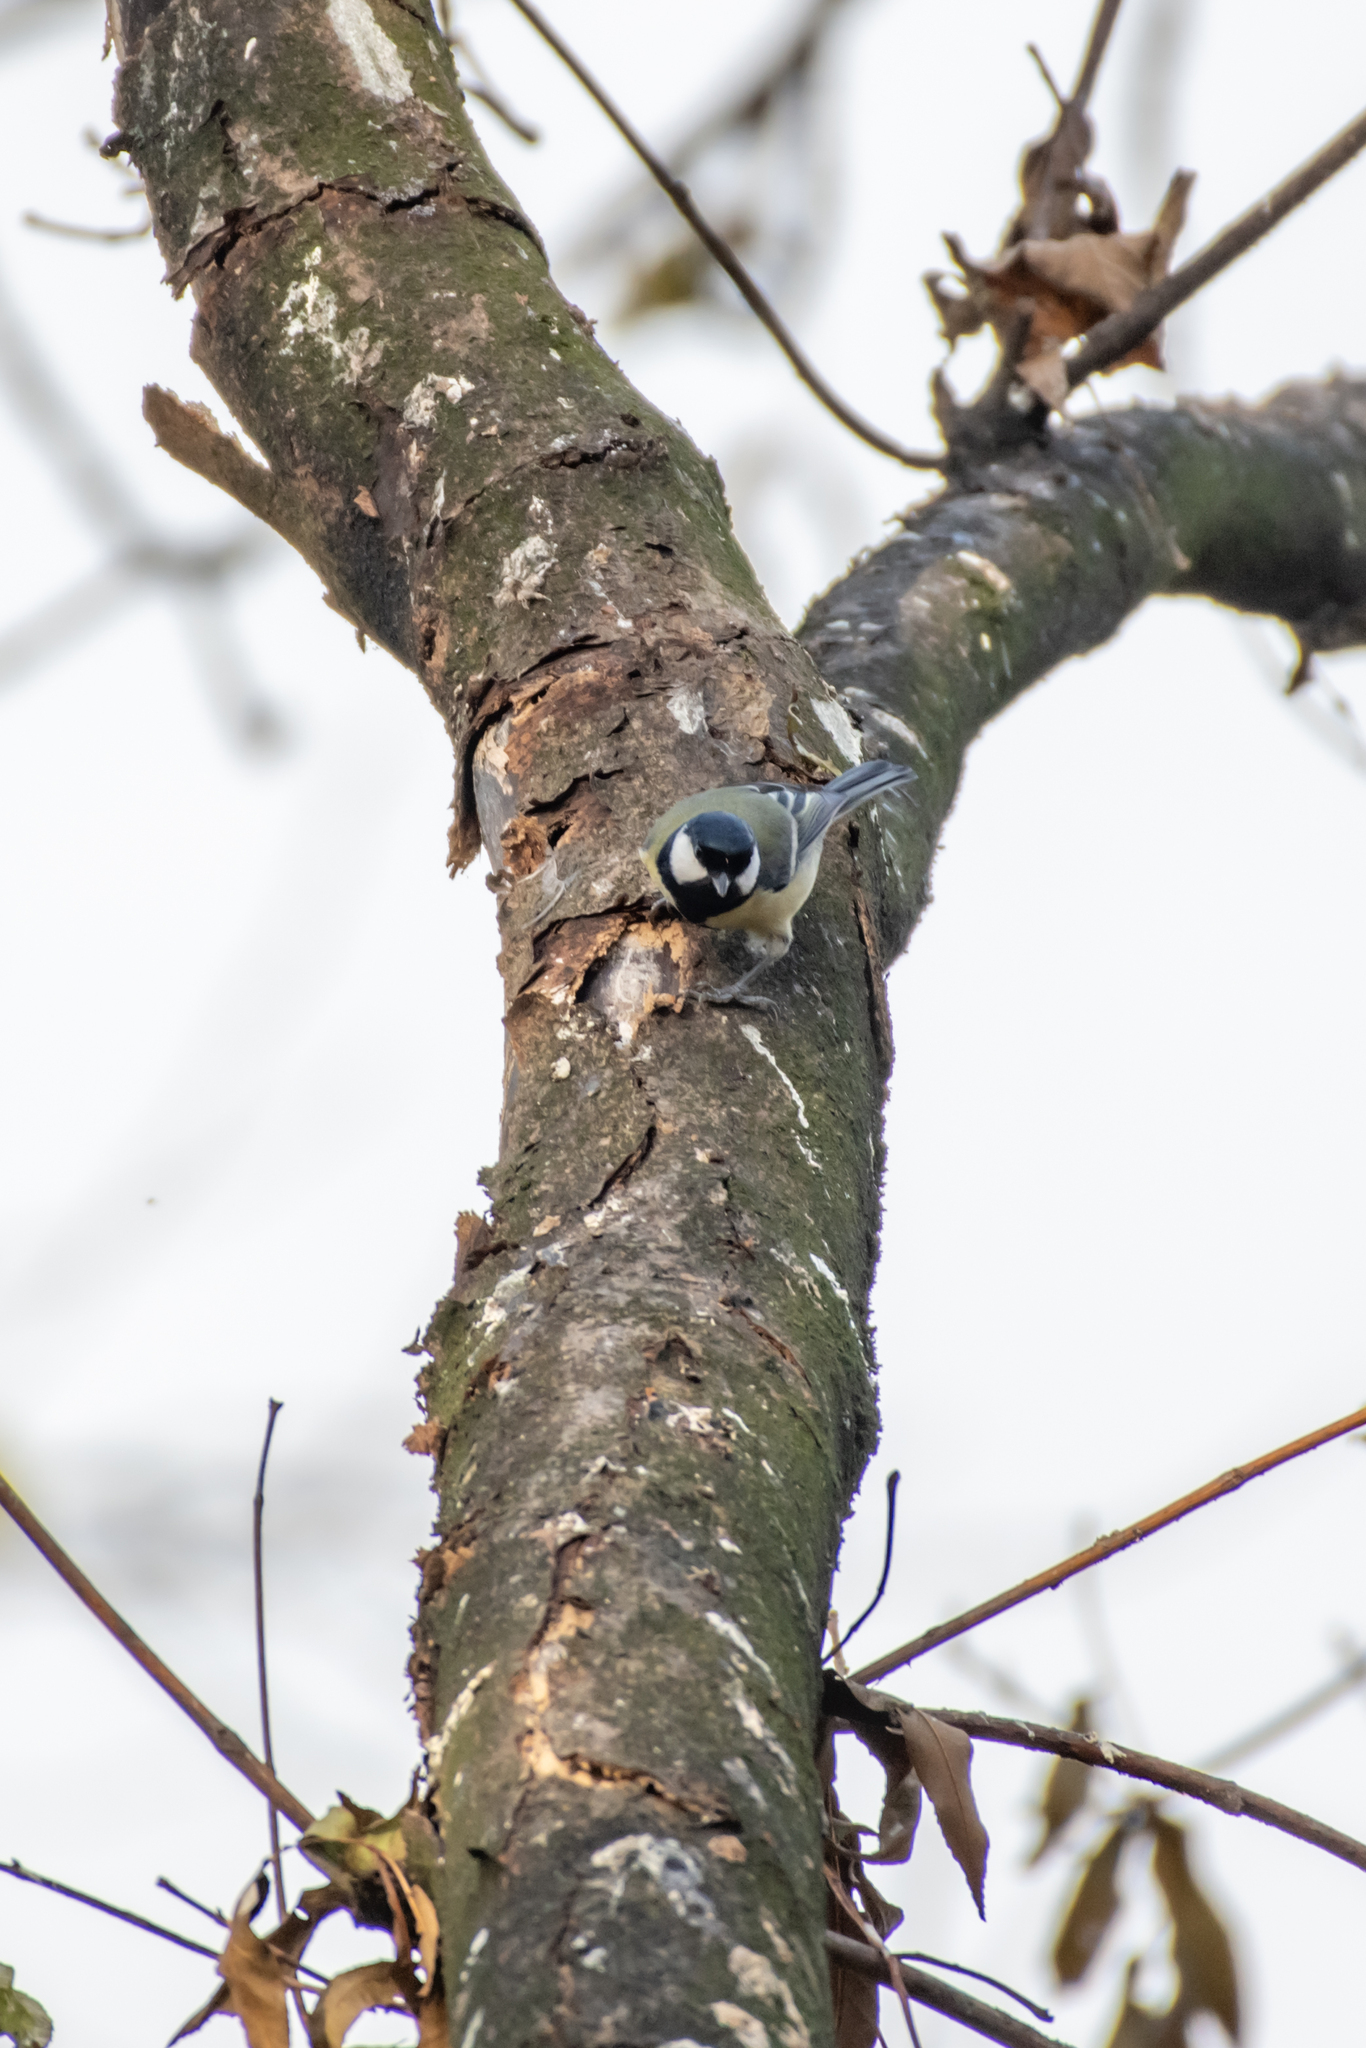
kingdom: Animalia
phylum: Chordata
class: Aves
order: Passeriformes
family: Paridae
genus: Parus
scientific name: Parus major
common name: Great tit
